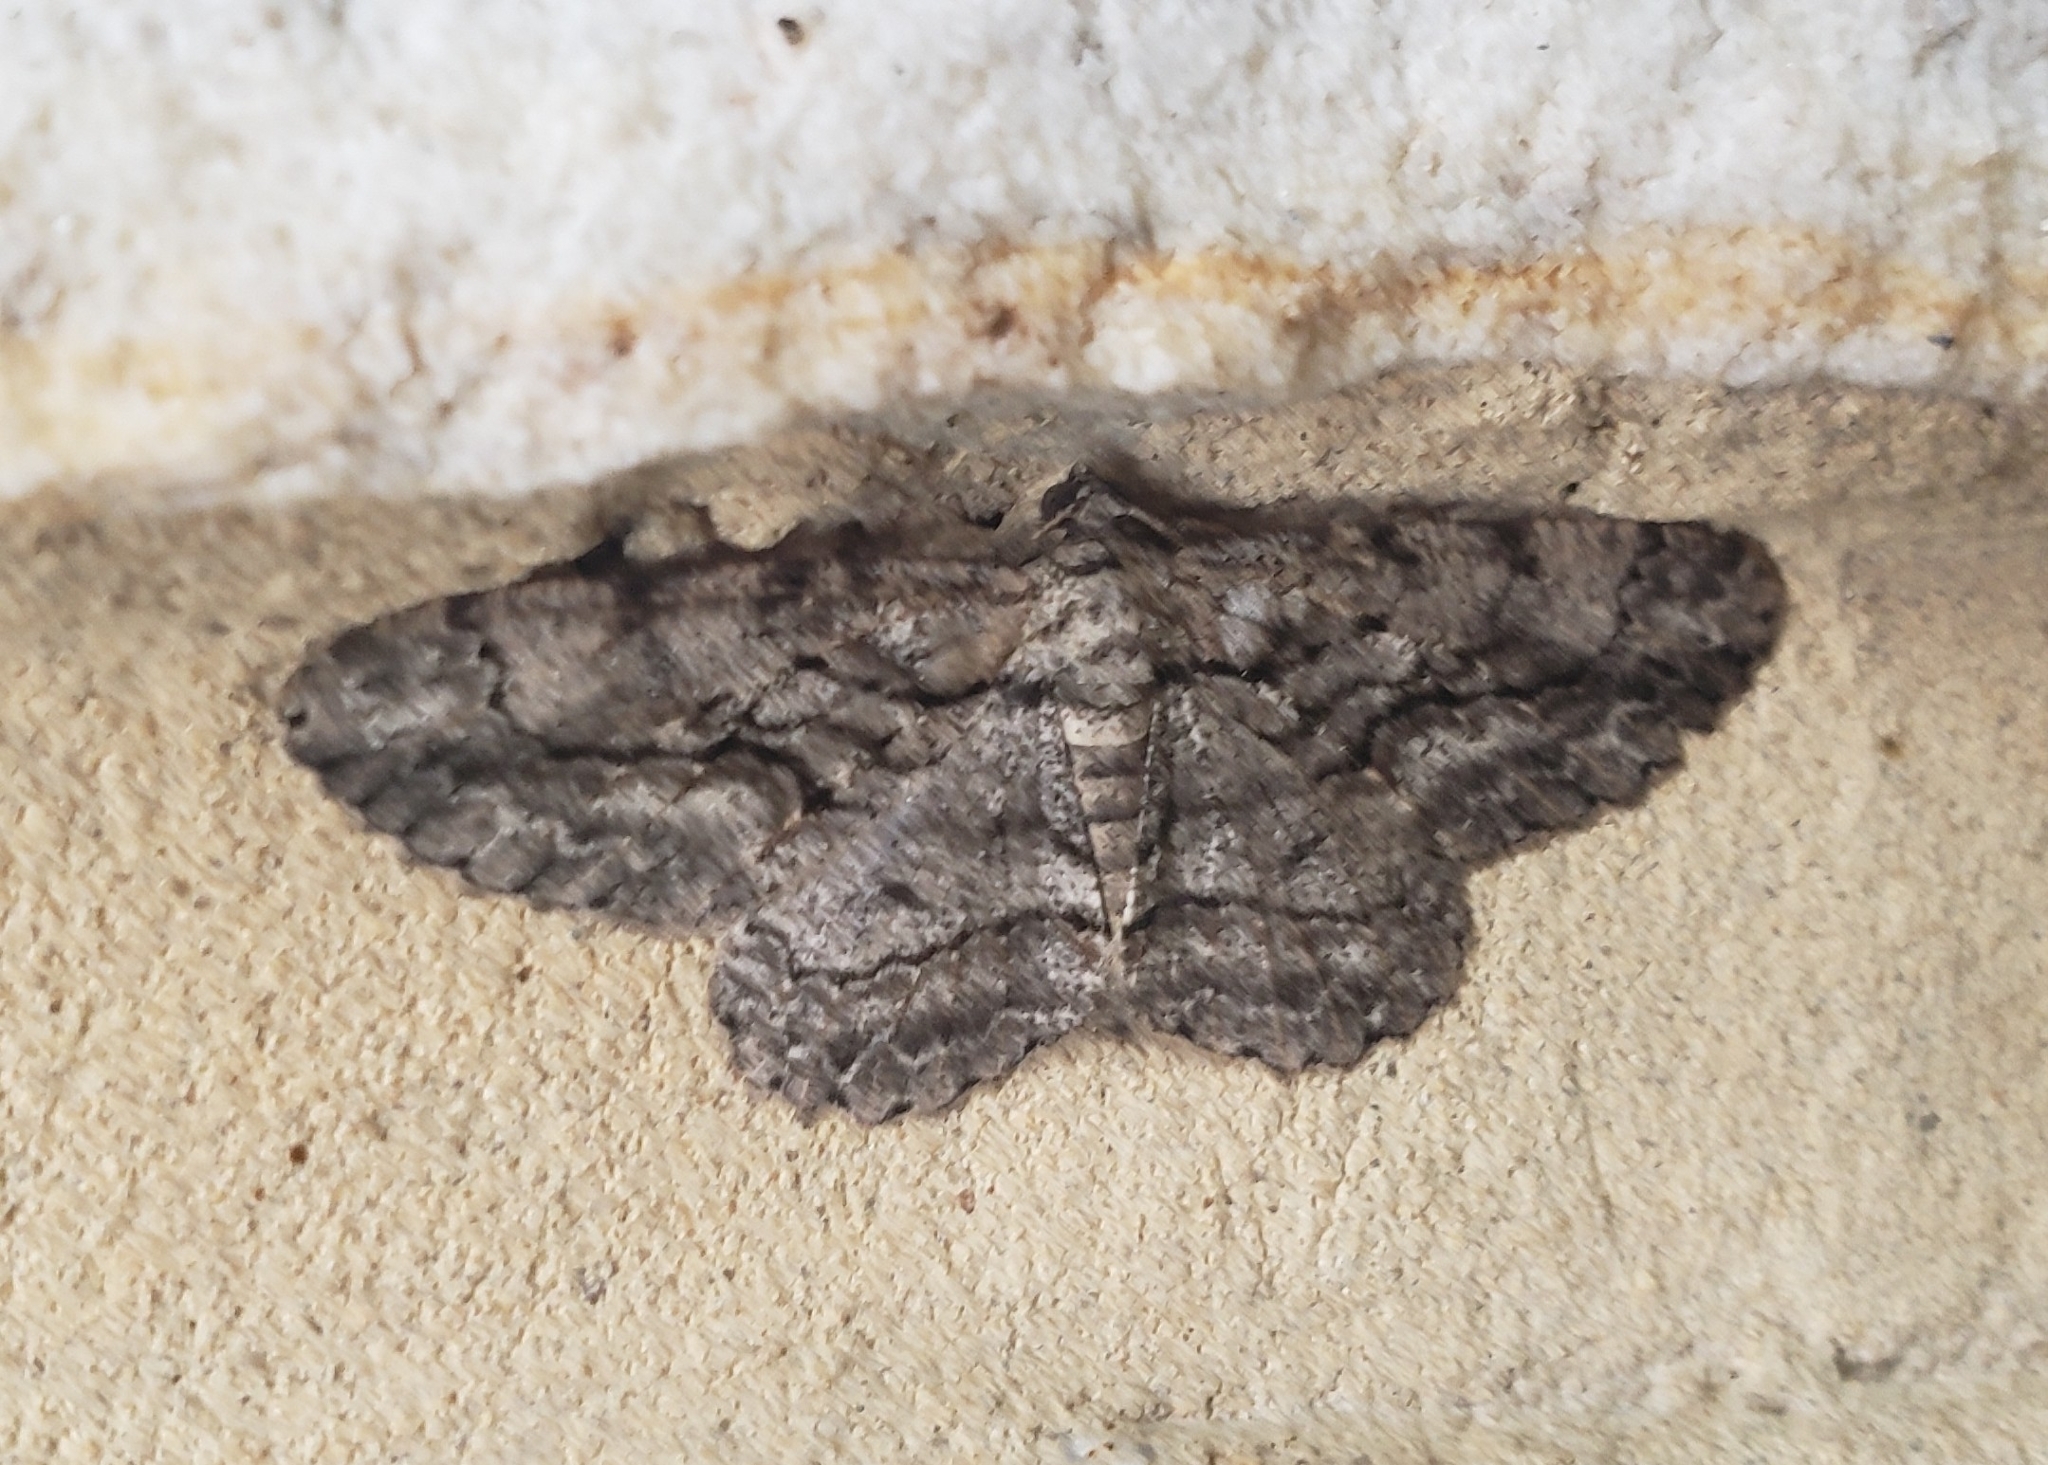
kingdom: Animalia
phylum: Arthropoda
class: Insecta
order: Lepidoptera
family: Geometridae
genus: Anavitrinella
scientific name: Anavitrinella pampinaria
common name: Common gray
